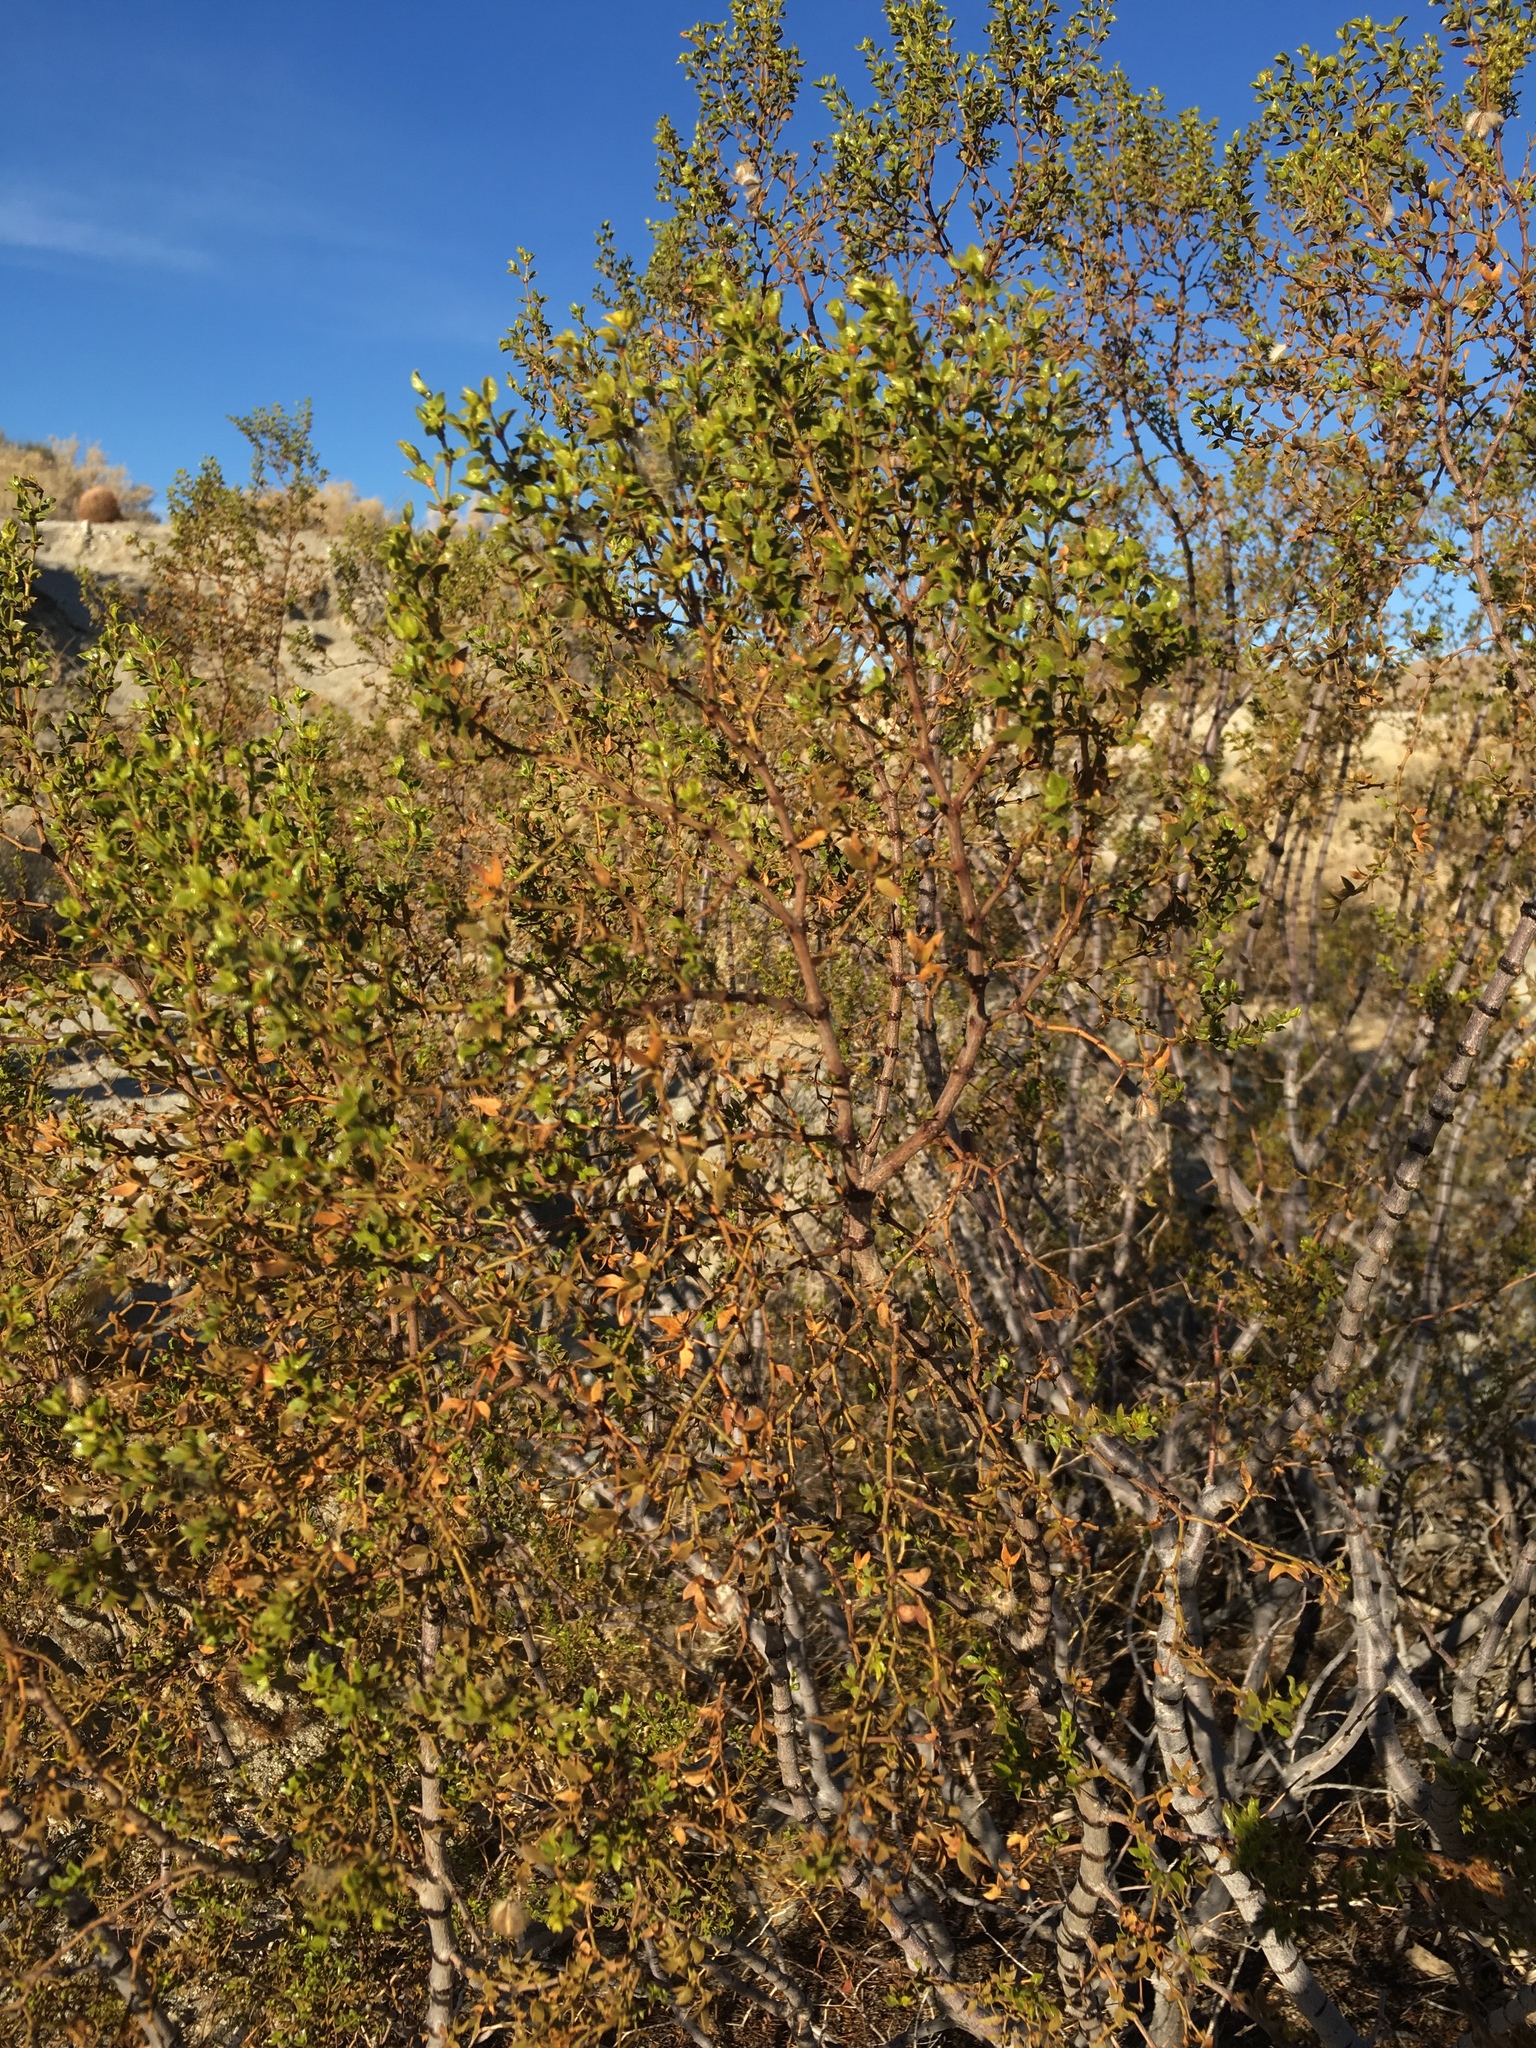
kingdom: Plantae
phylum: Tracheophyta
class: Magnoliopsida
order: Zygophyllales
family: Zygophyllaceae
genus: Larrea
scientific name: Larrea tridentata
